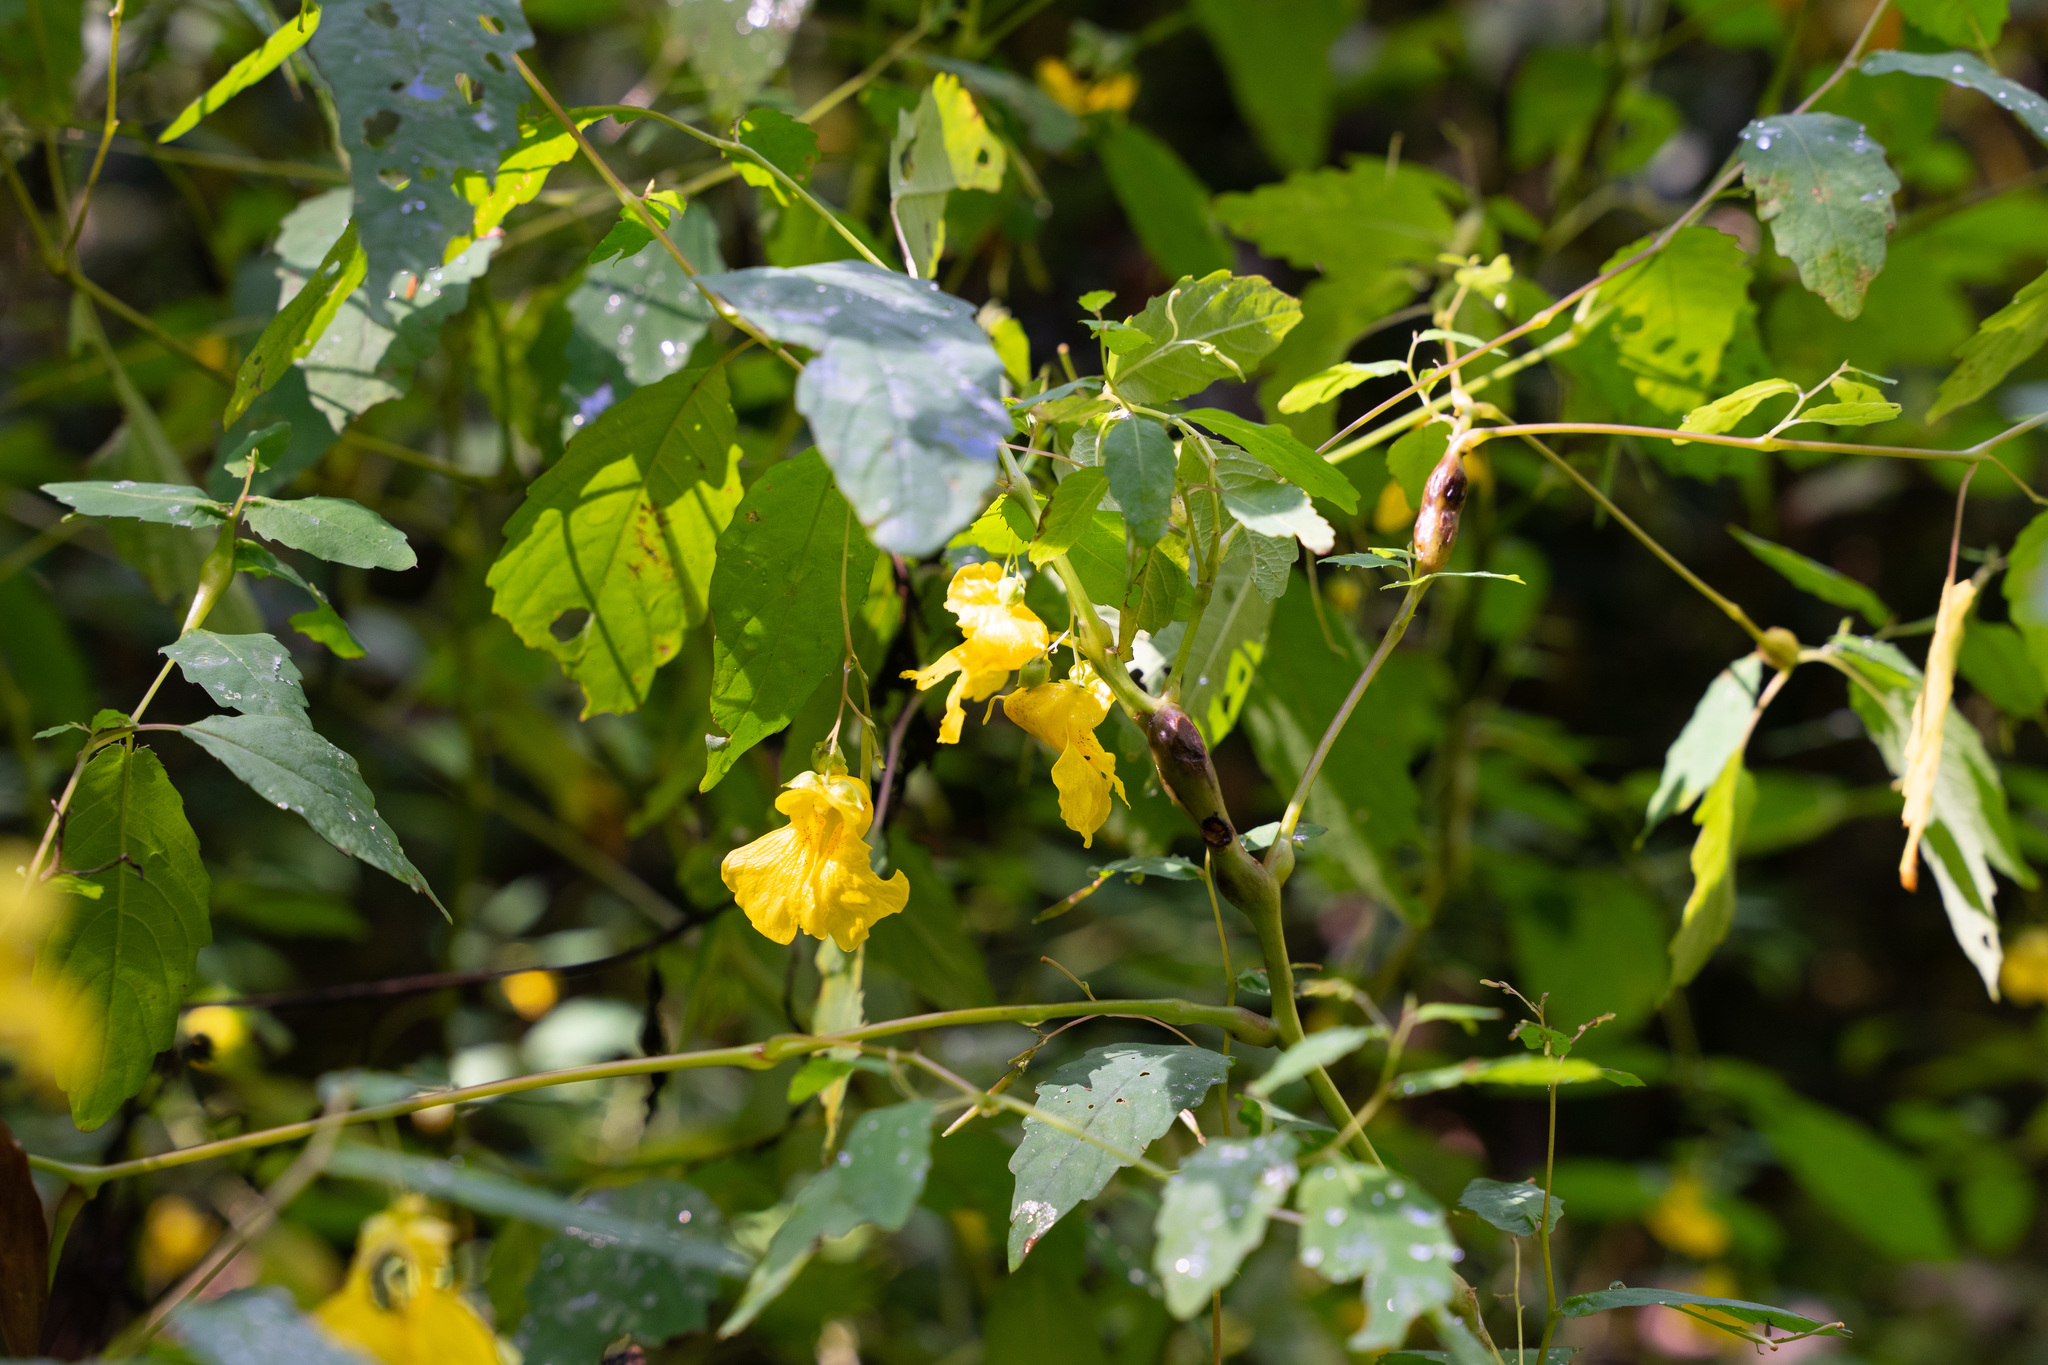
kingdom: Plantae
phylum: Tracheophyta
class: Magnoliopsida
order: Ericales
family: Balsaminaceae
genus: Impatiens
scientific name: Impatiens pallida
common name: Pale snapweed
